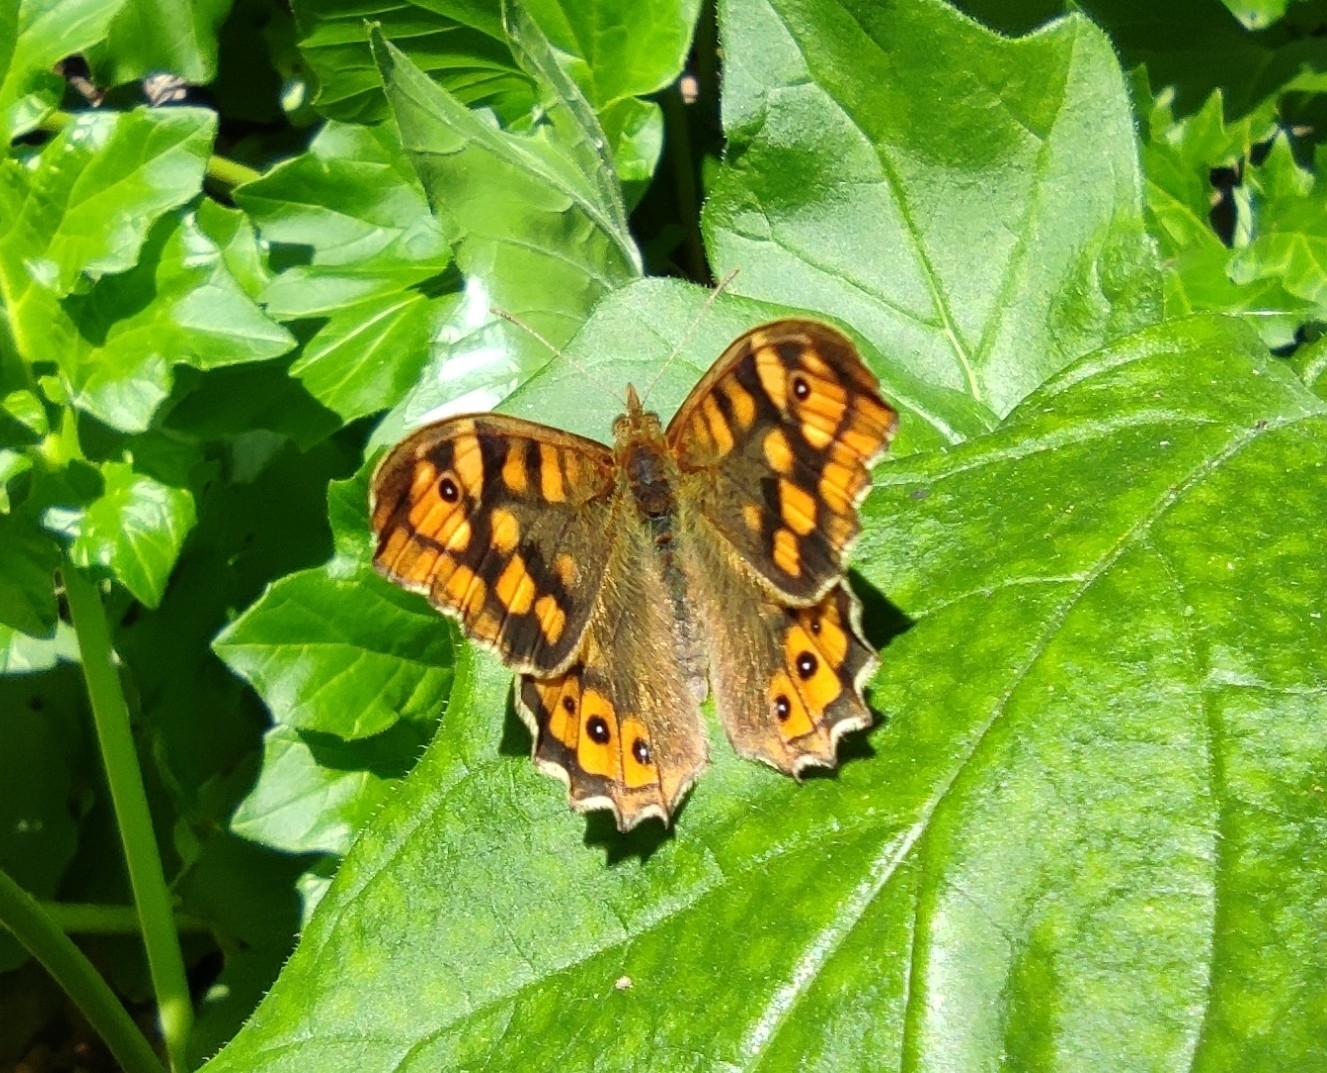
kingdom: Animalia
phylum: Arthropoda
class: Insecta
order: Lepidoptera
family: Nymphalidae
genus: Pararge
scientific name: Pararge aegeria
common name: Speckled wood
